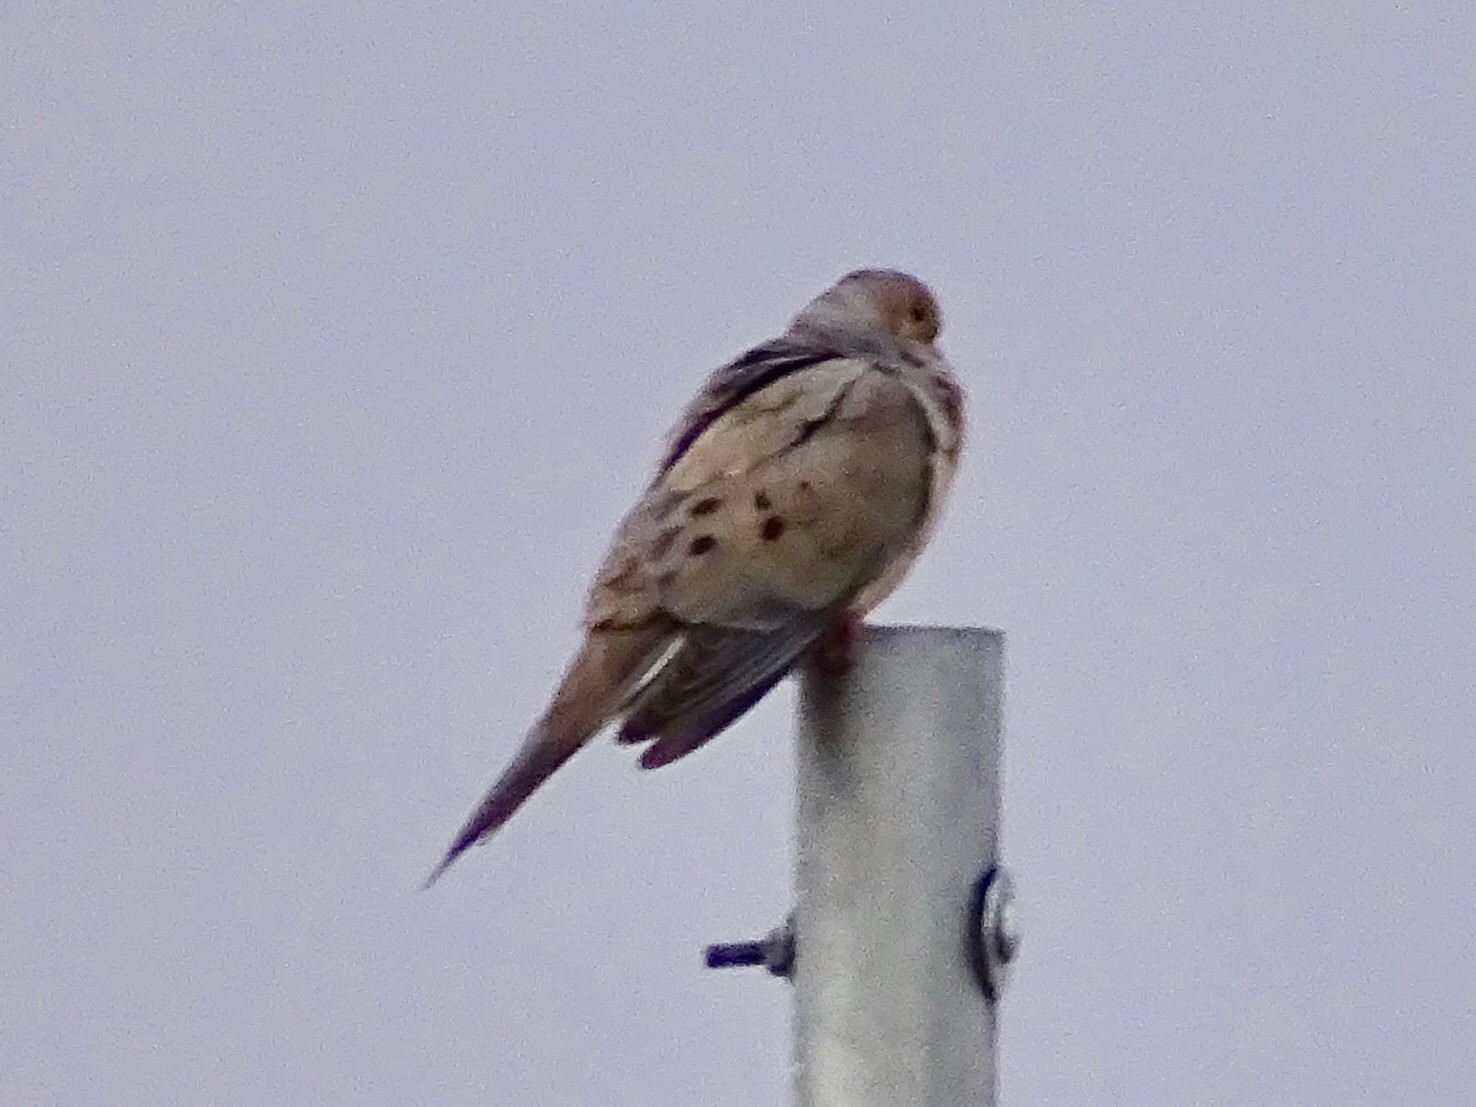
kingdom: Animalia
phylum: Chordata
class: Aves
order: Columbiformes
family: Columbidae
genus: Zenaida
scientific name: Zenaida macroura
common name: Mourning dove
